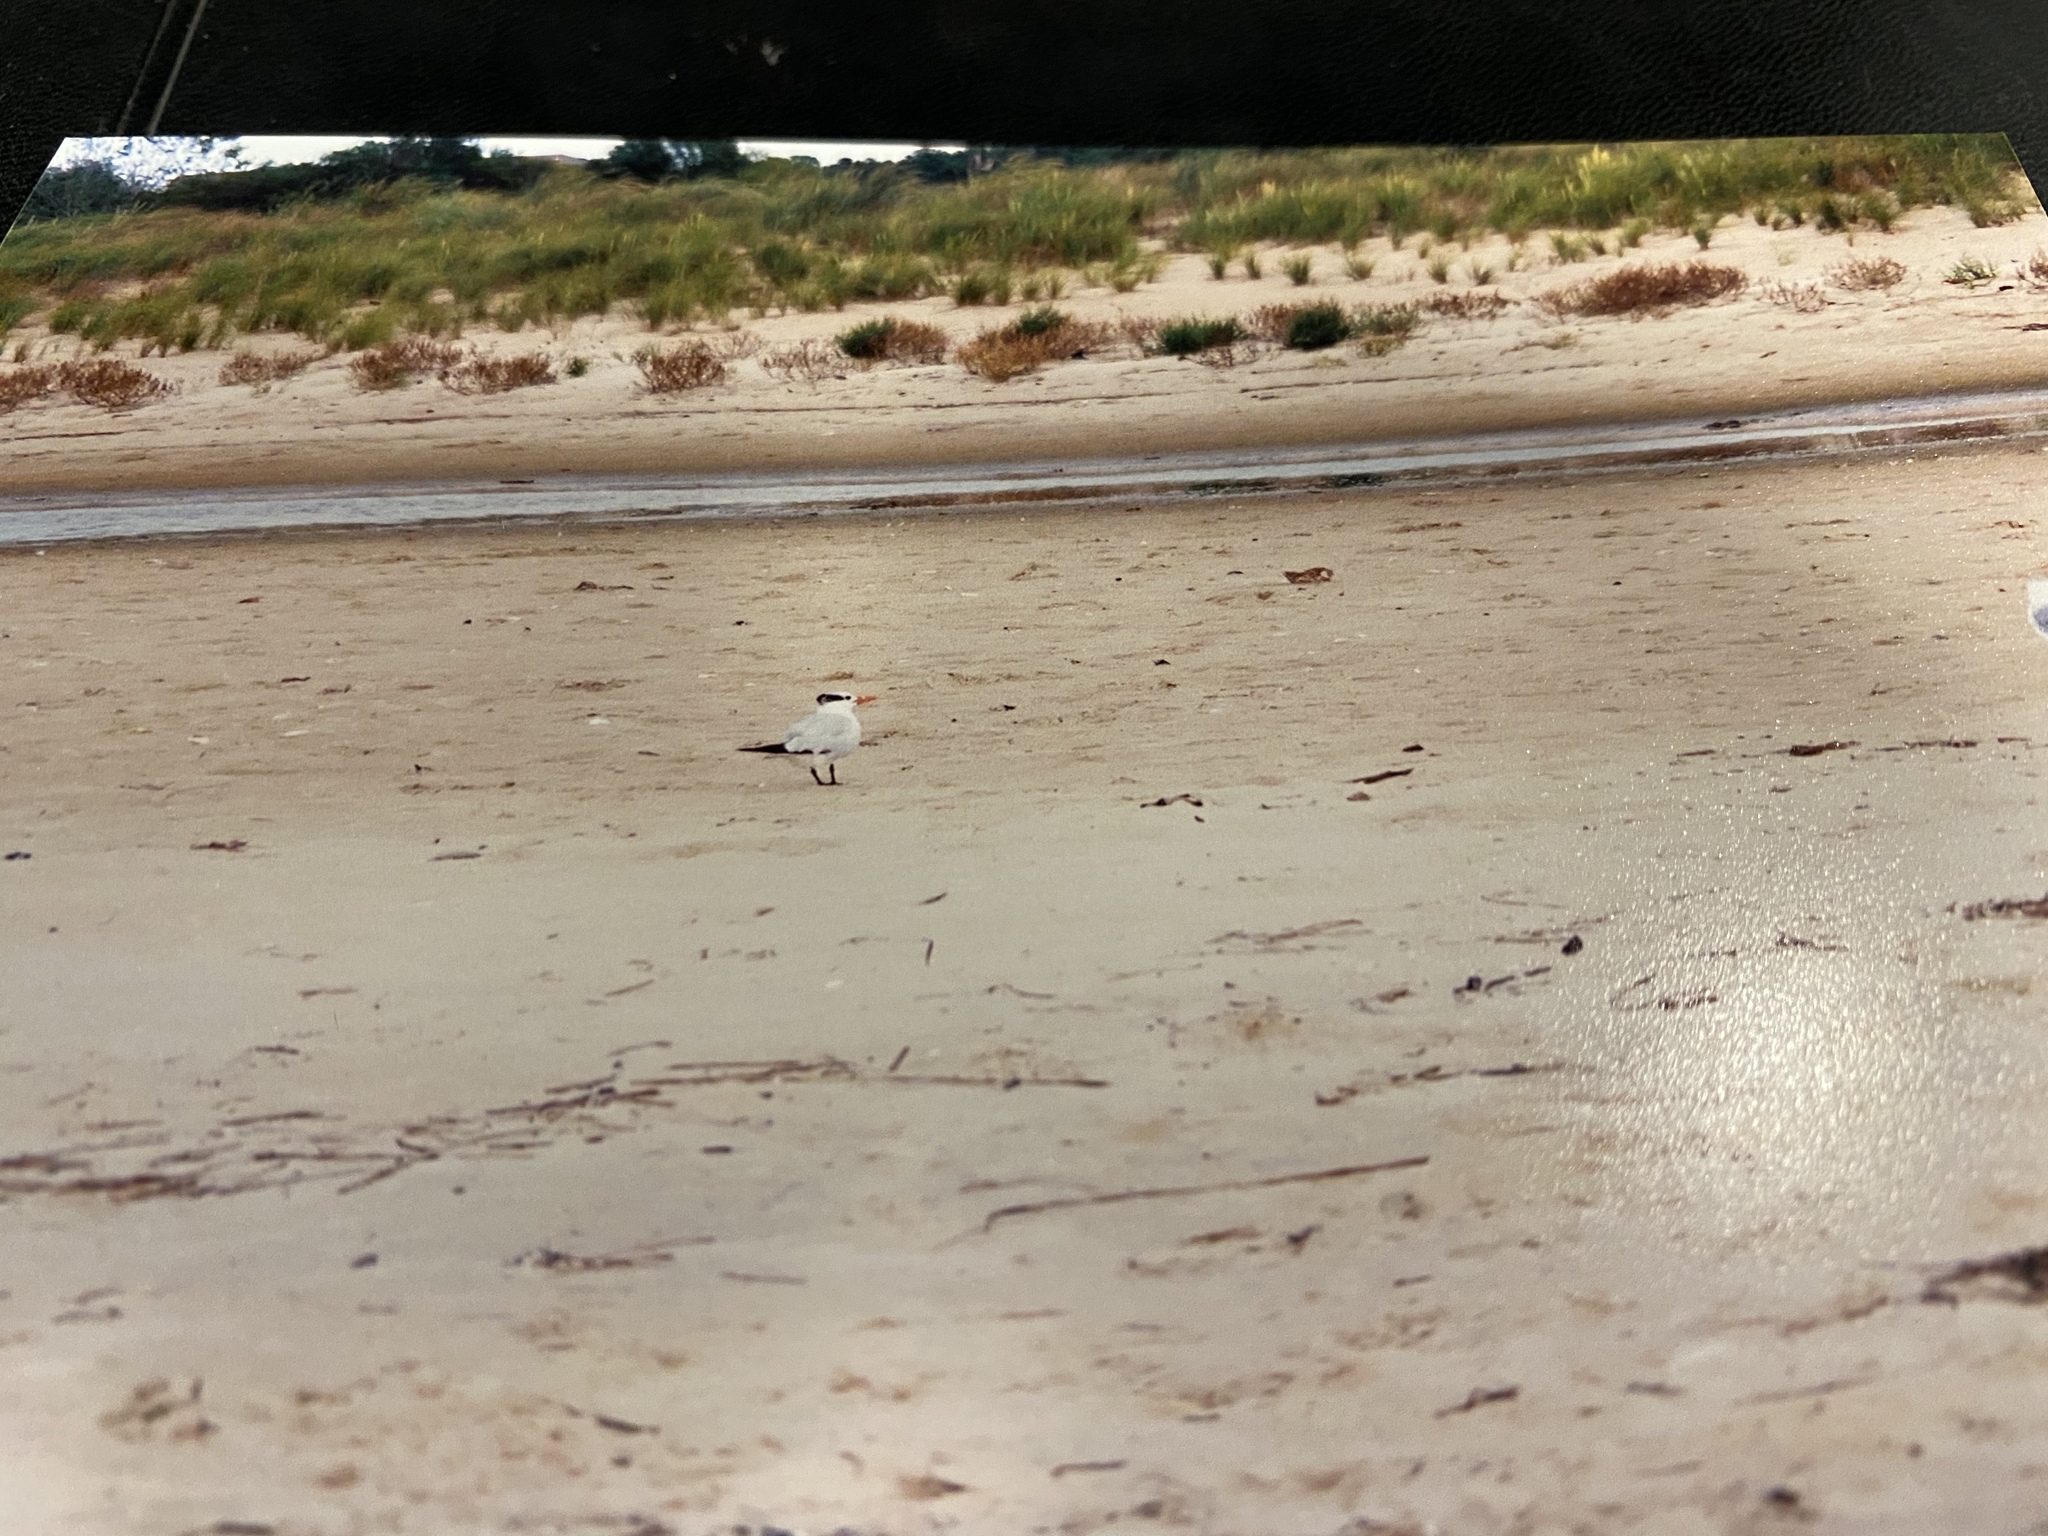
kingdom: Animalia
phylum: Chordata
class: Aves
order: Charadriiformes
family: Laridae
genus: Thalasseus
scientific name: Thalasseus maximus
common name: Royal tern
